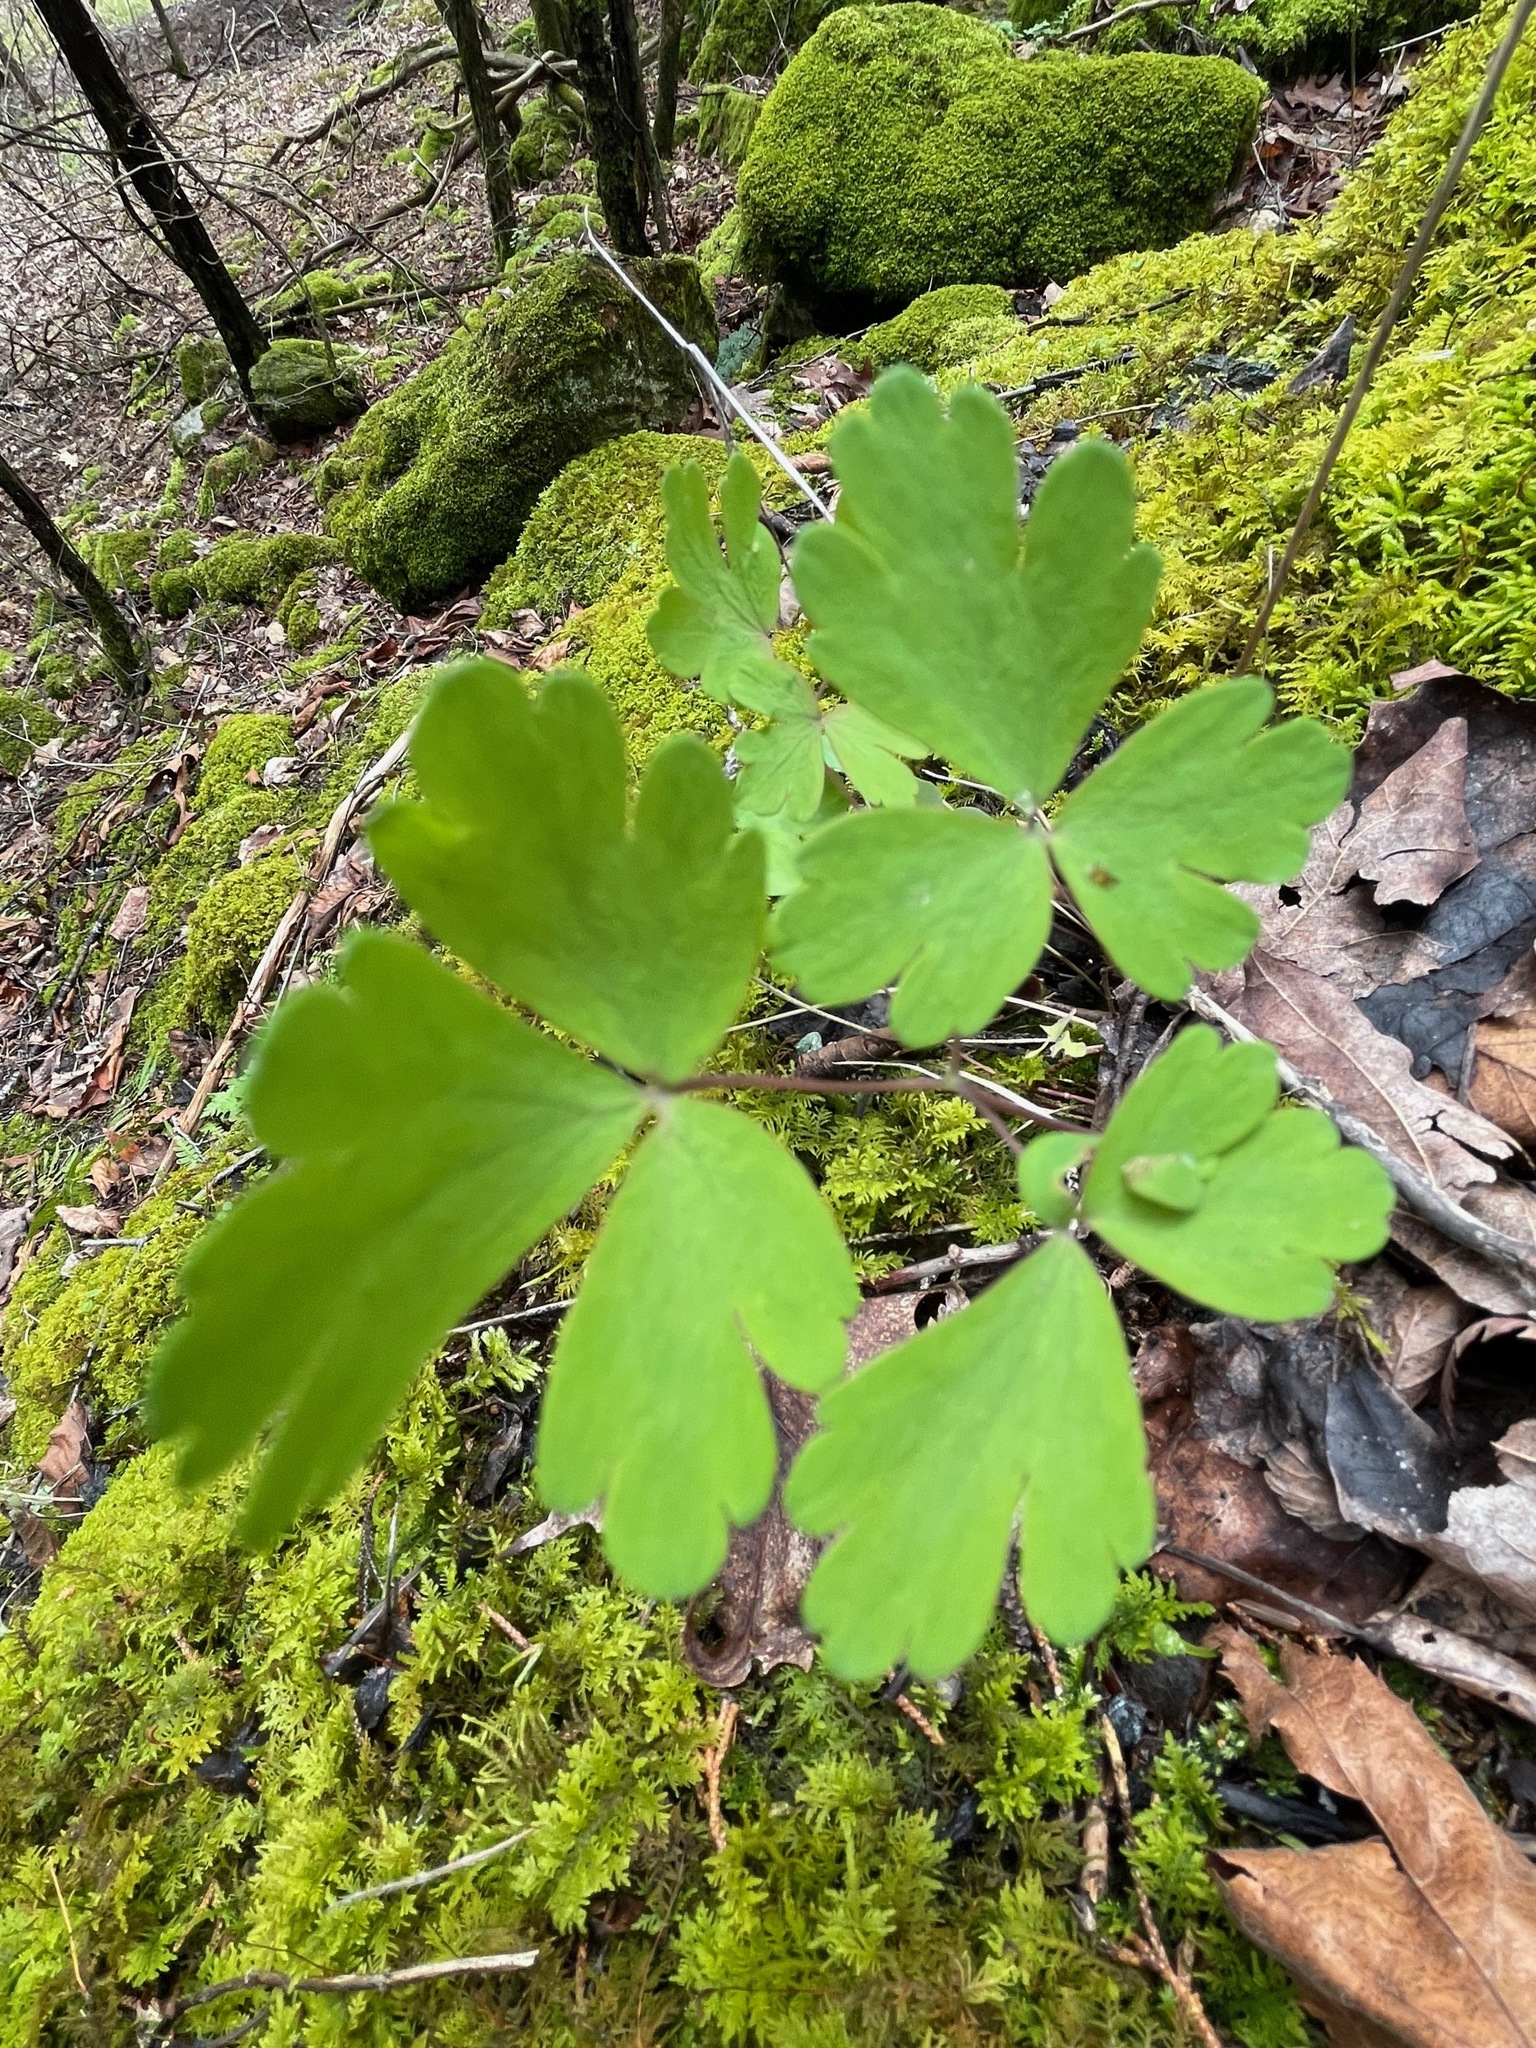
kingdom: Plantae
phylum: Tracheophyta
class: Magnoliopsida
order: Ranunculales
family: Ranunculaceae
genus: Aquilegia
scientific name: Aquilegia canadensis
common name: American columbine
